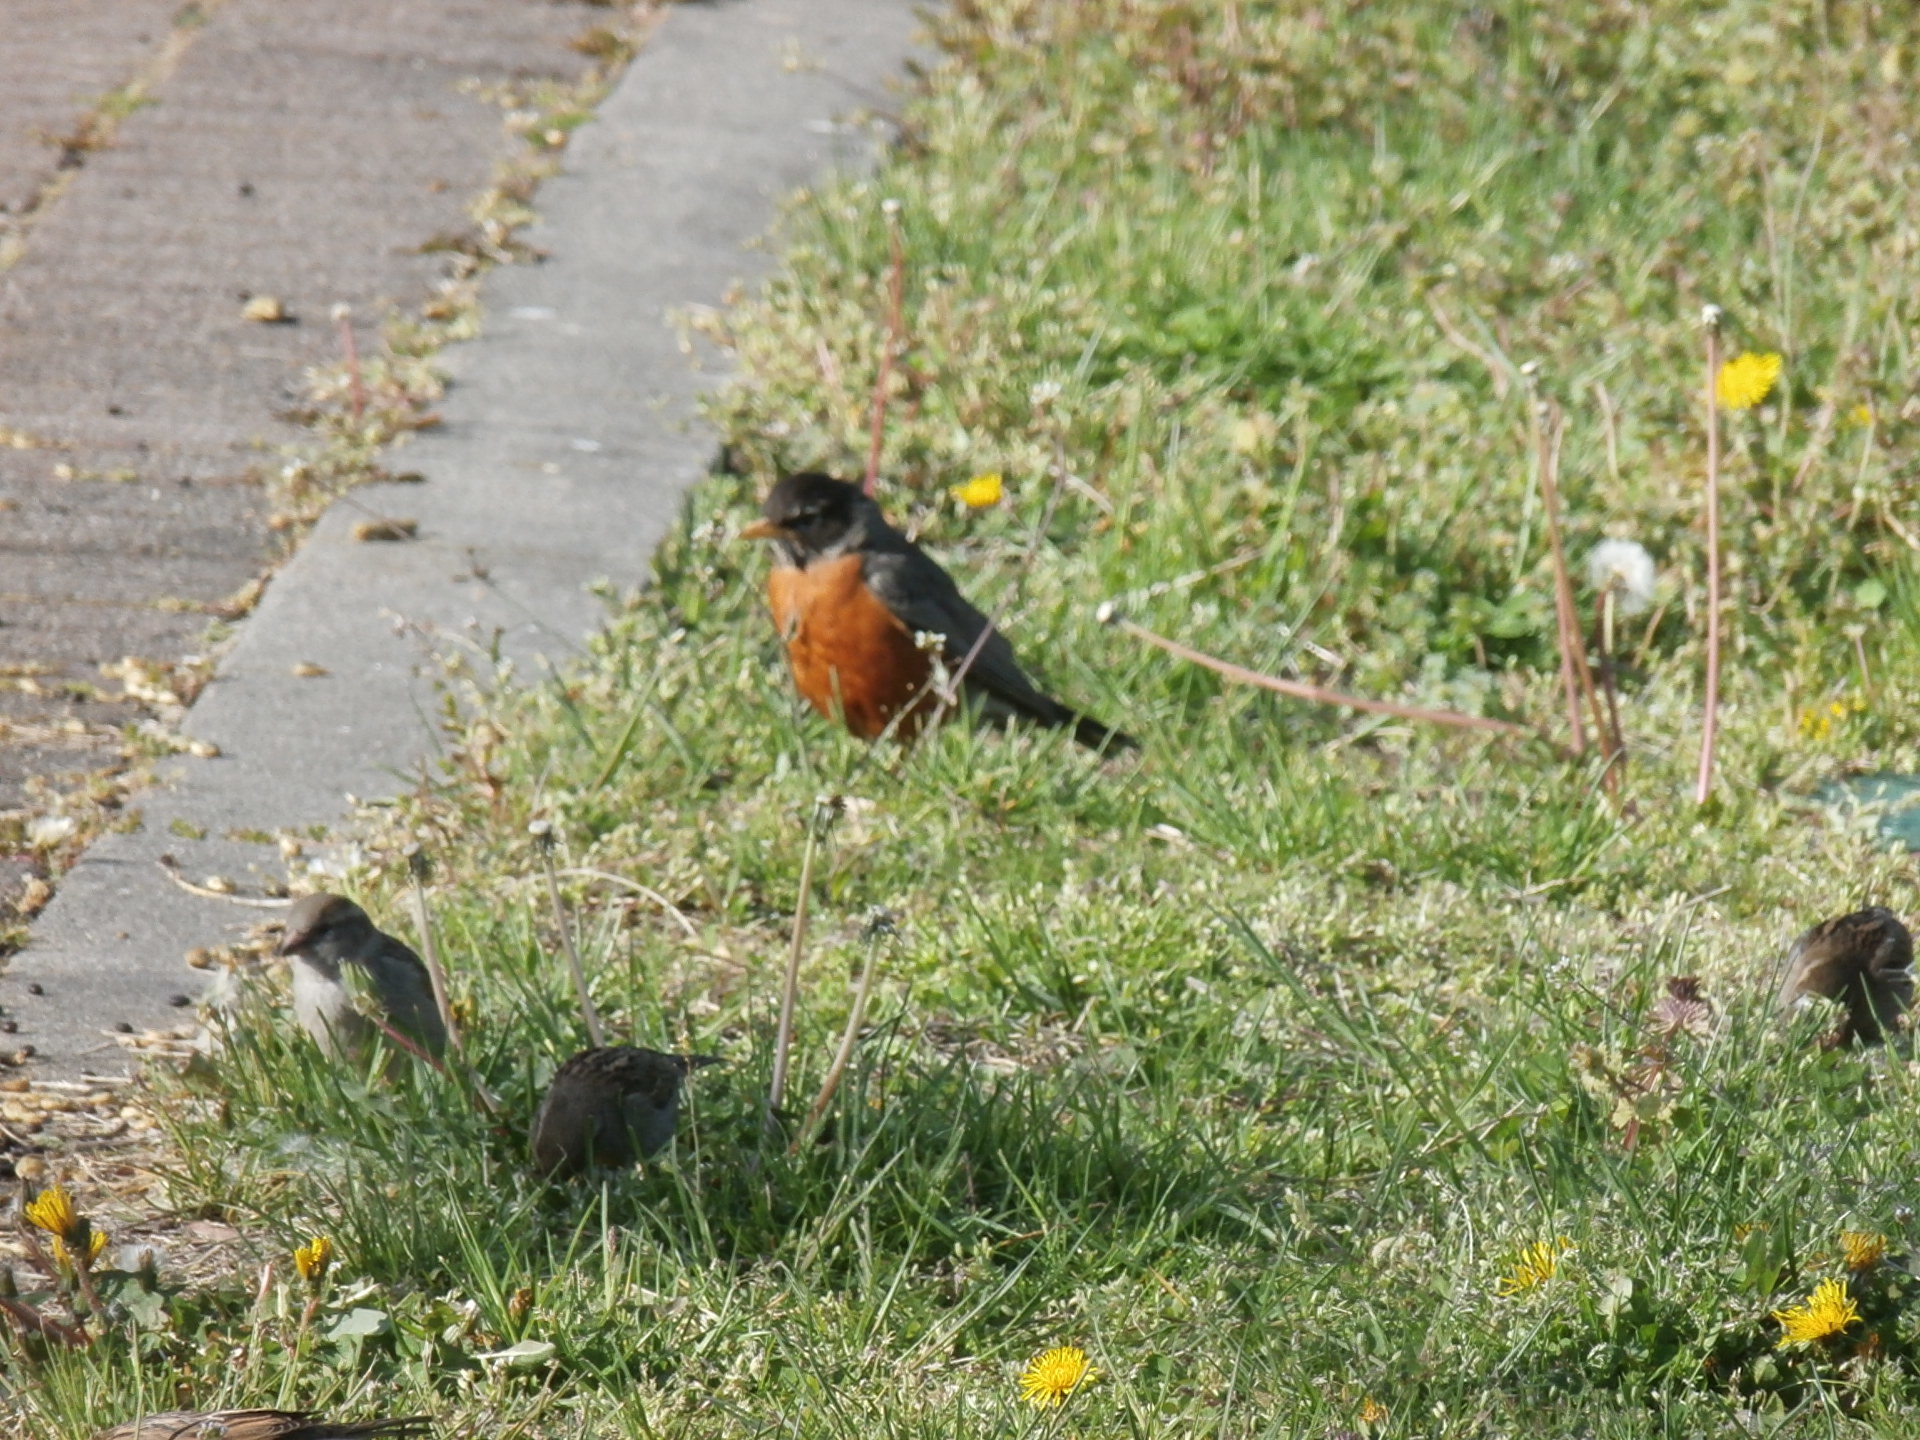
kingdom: Animalia
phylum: Chordata
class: Aves
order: Passeriformes
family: Turdidae
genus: Turdus
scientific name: Turdus migratorius
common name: American robin
